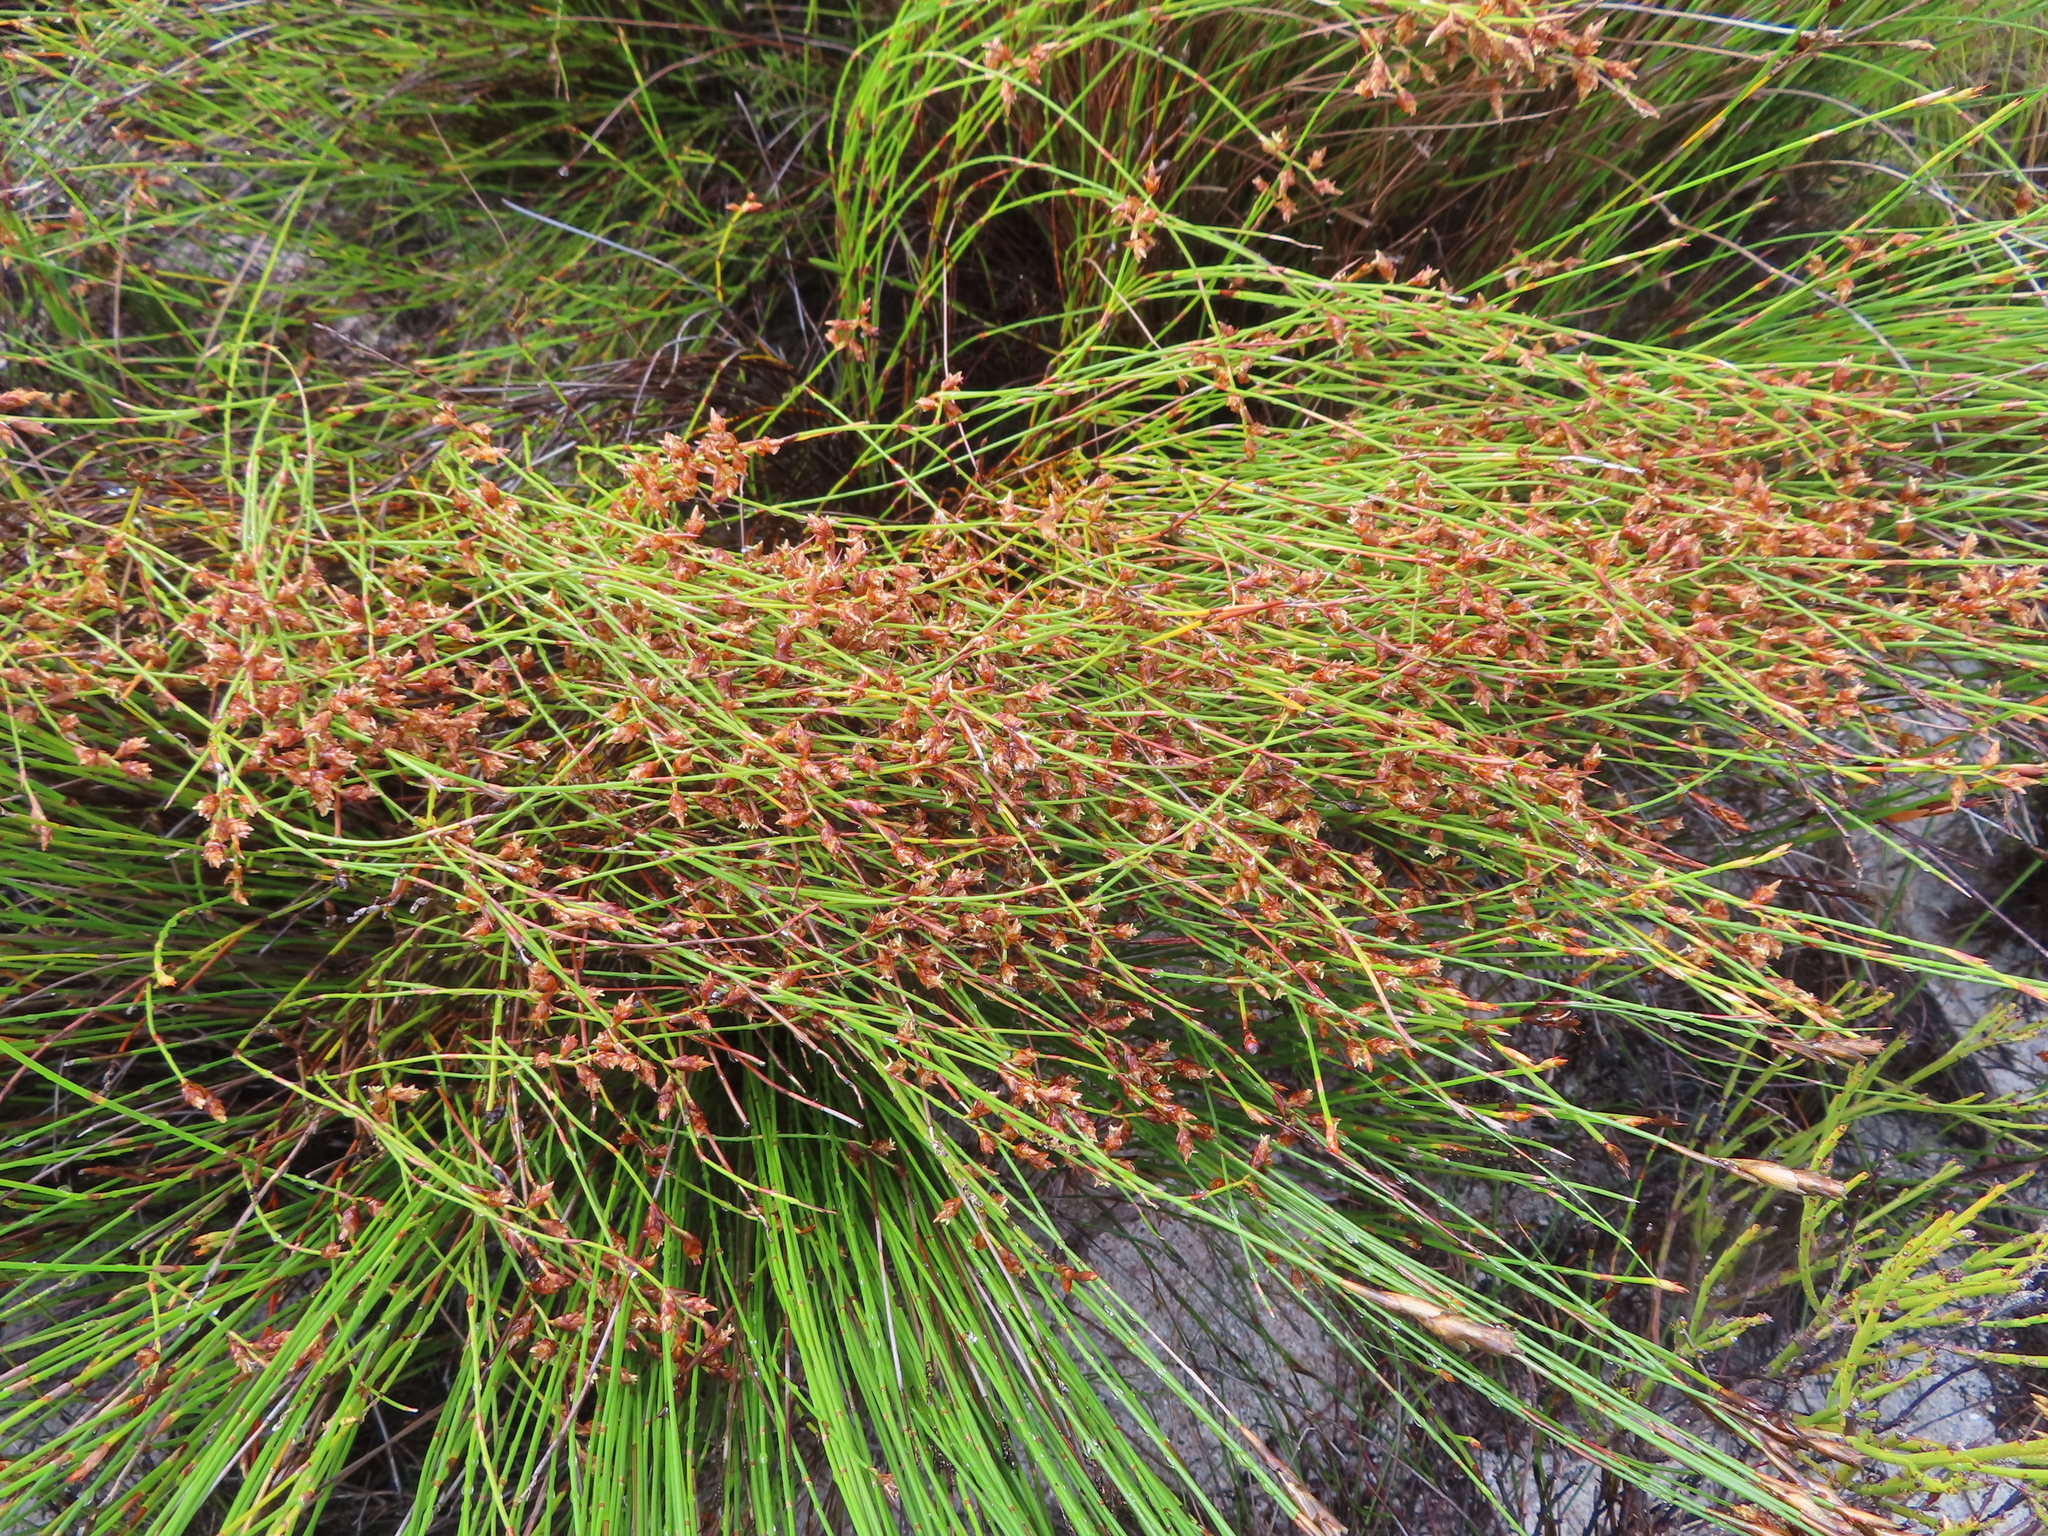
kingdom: Plantae
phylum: Tracheophyta
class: Liliopsida
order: Poales
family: Restionaceae
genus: Mastersiella
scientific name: Mastersiella digitata
